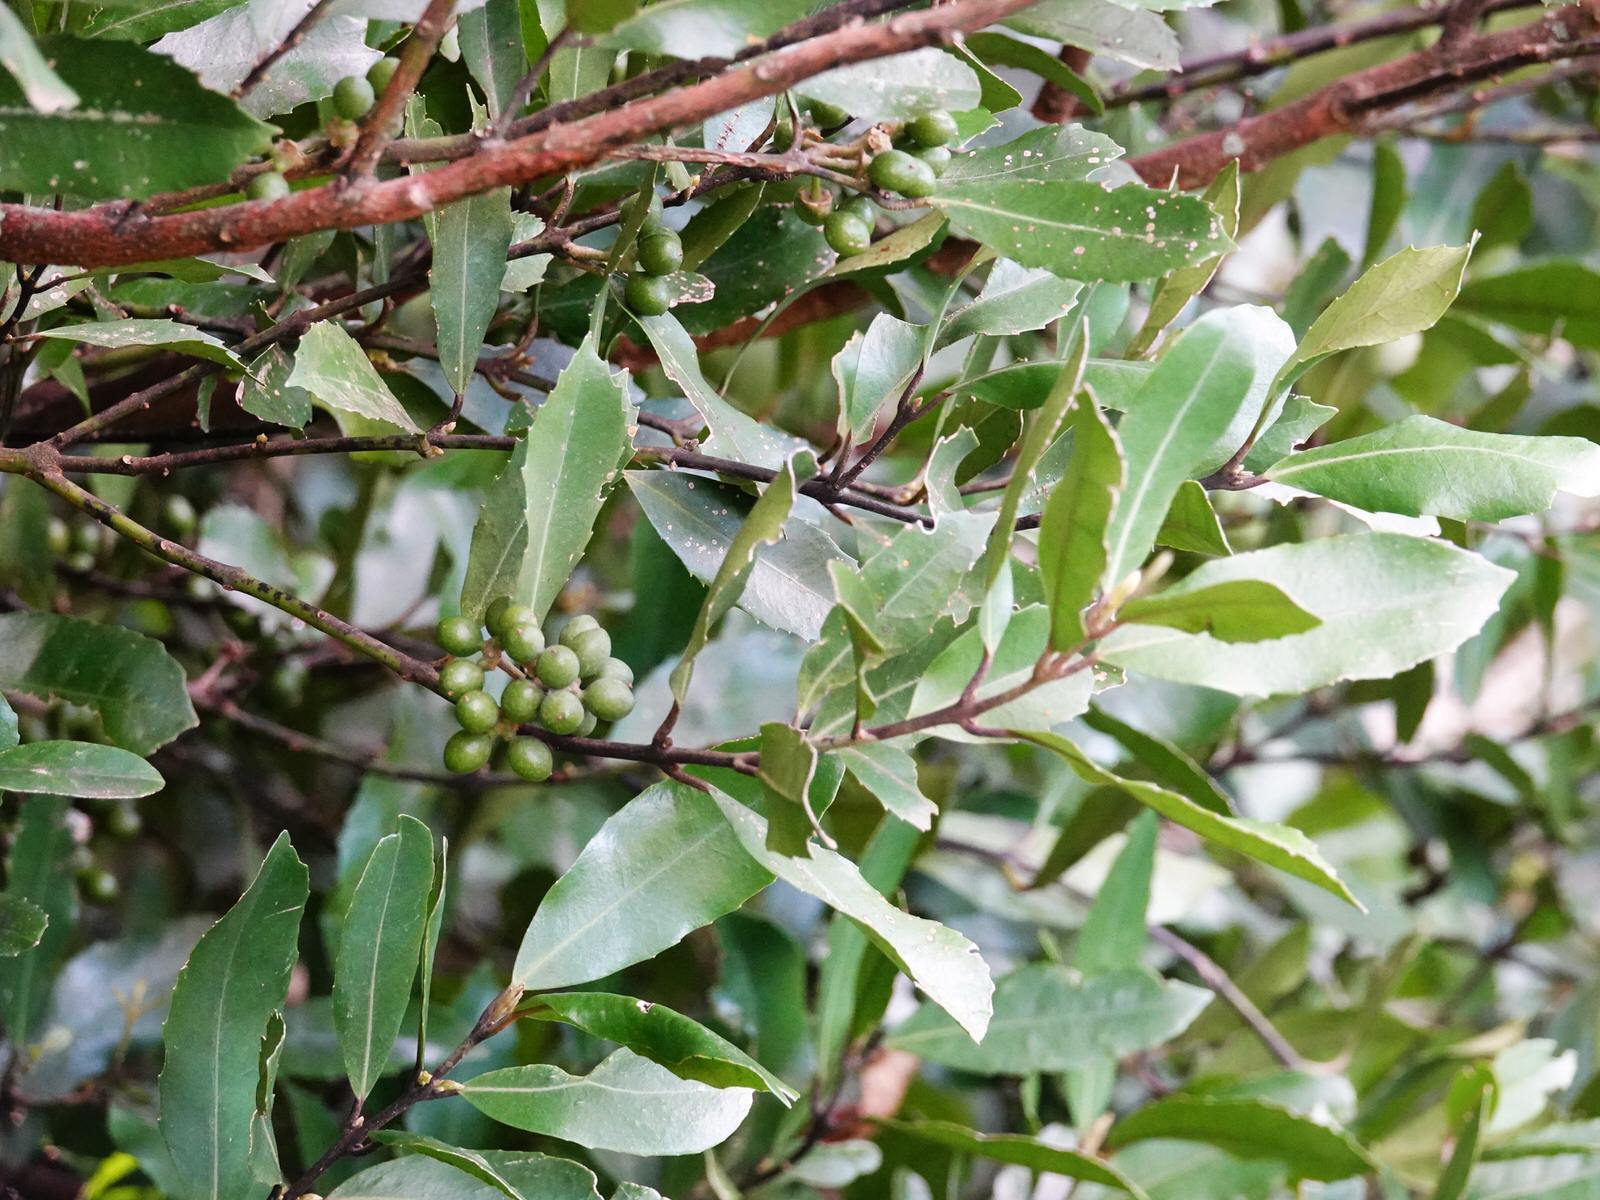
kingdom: Plantae
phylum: Tracheophyta
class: Magnoliopsida
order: Laurales
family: Monimiaceae
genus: Hedycarya
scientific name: Hedycarya arborea
